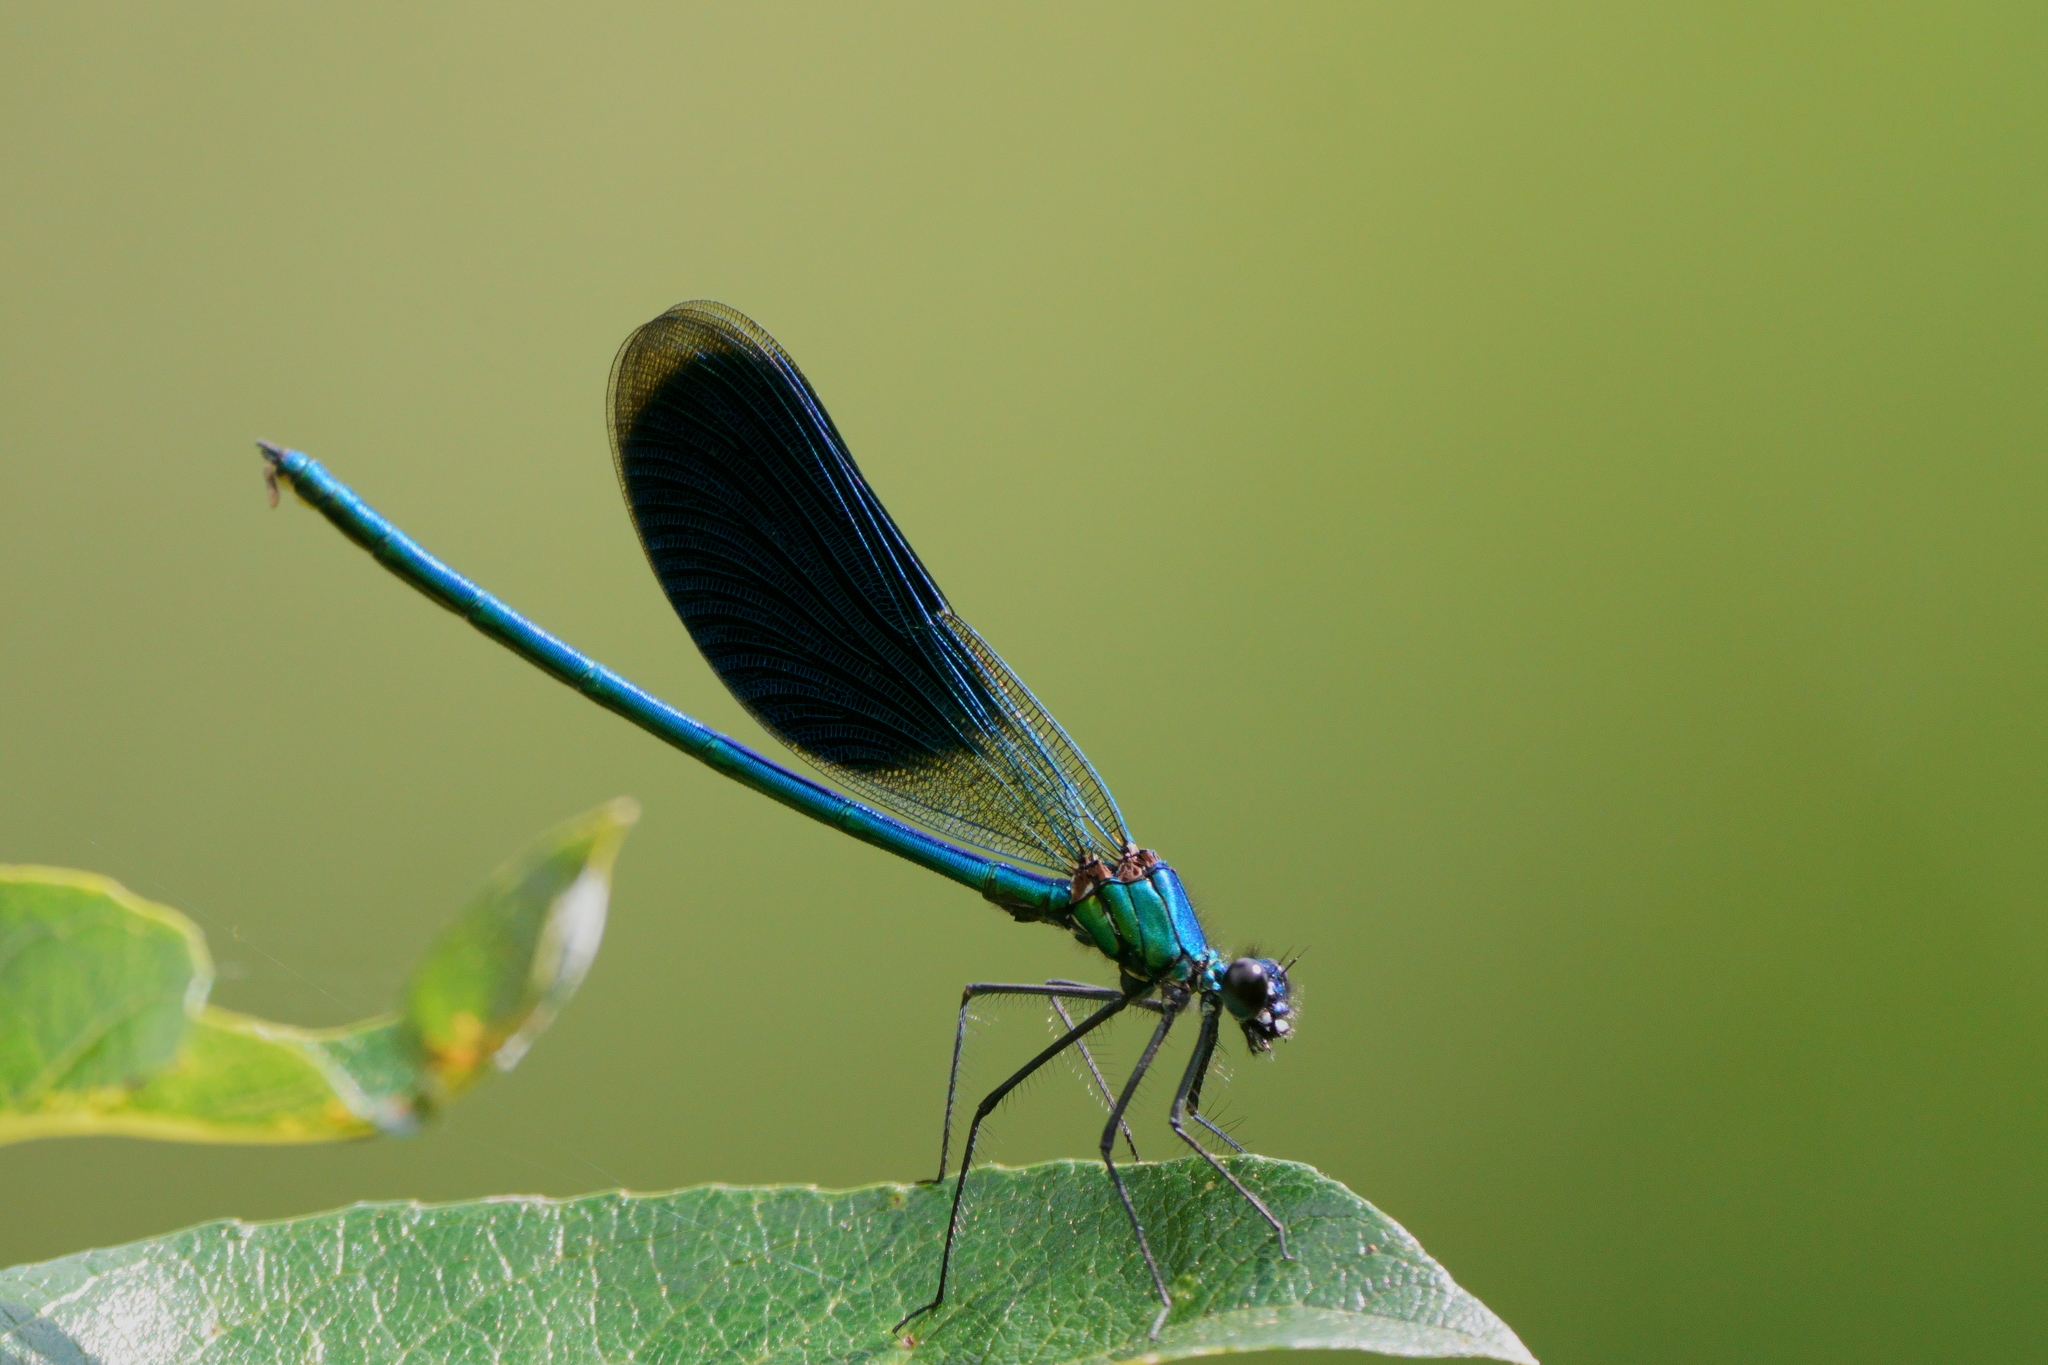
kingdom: Animalia
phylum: Arthropoda
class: Insecta
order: Odonata
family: Calopterygidae
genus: Calopteryx
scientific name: Calopteryx splendens
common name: Banded demoiselle
